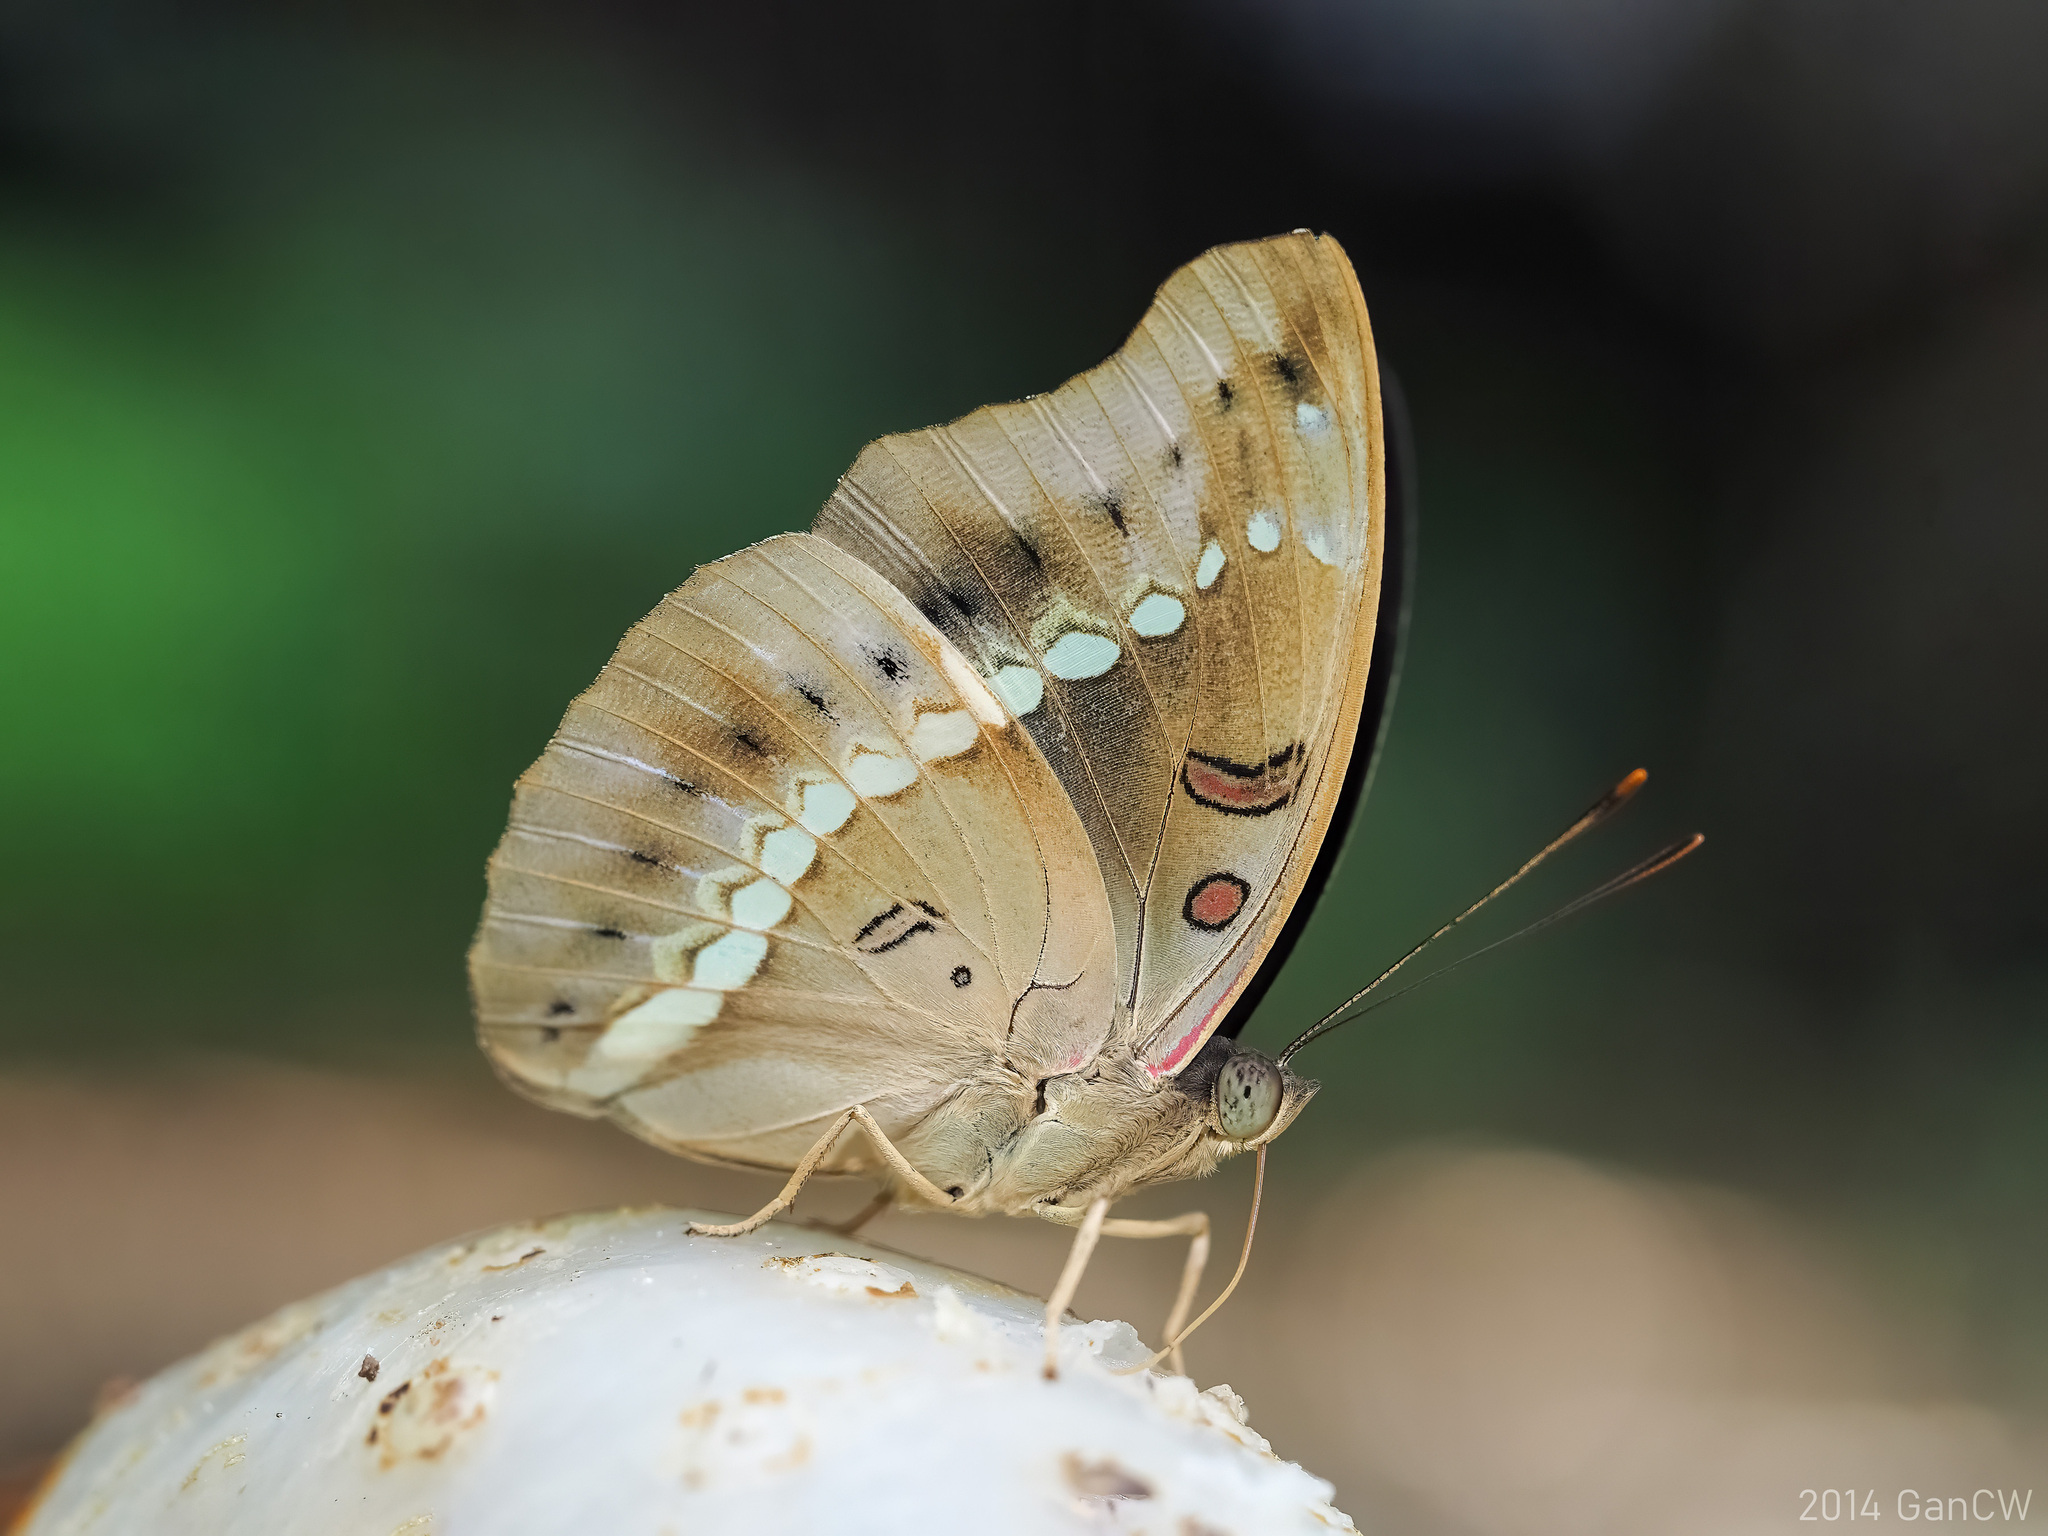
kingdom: Animalia
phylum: Arthropoda
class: Insecta
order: Lepidoptera
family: Nymphalidae
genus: Euthalia
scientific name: Euthalia Bassarona teuta
